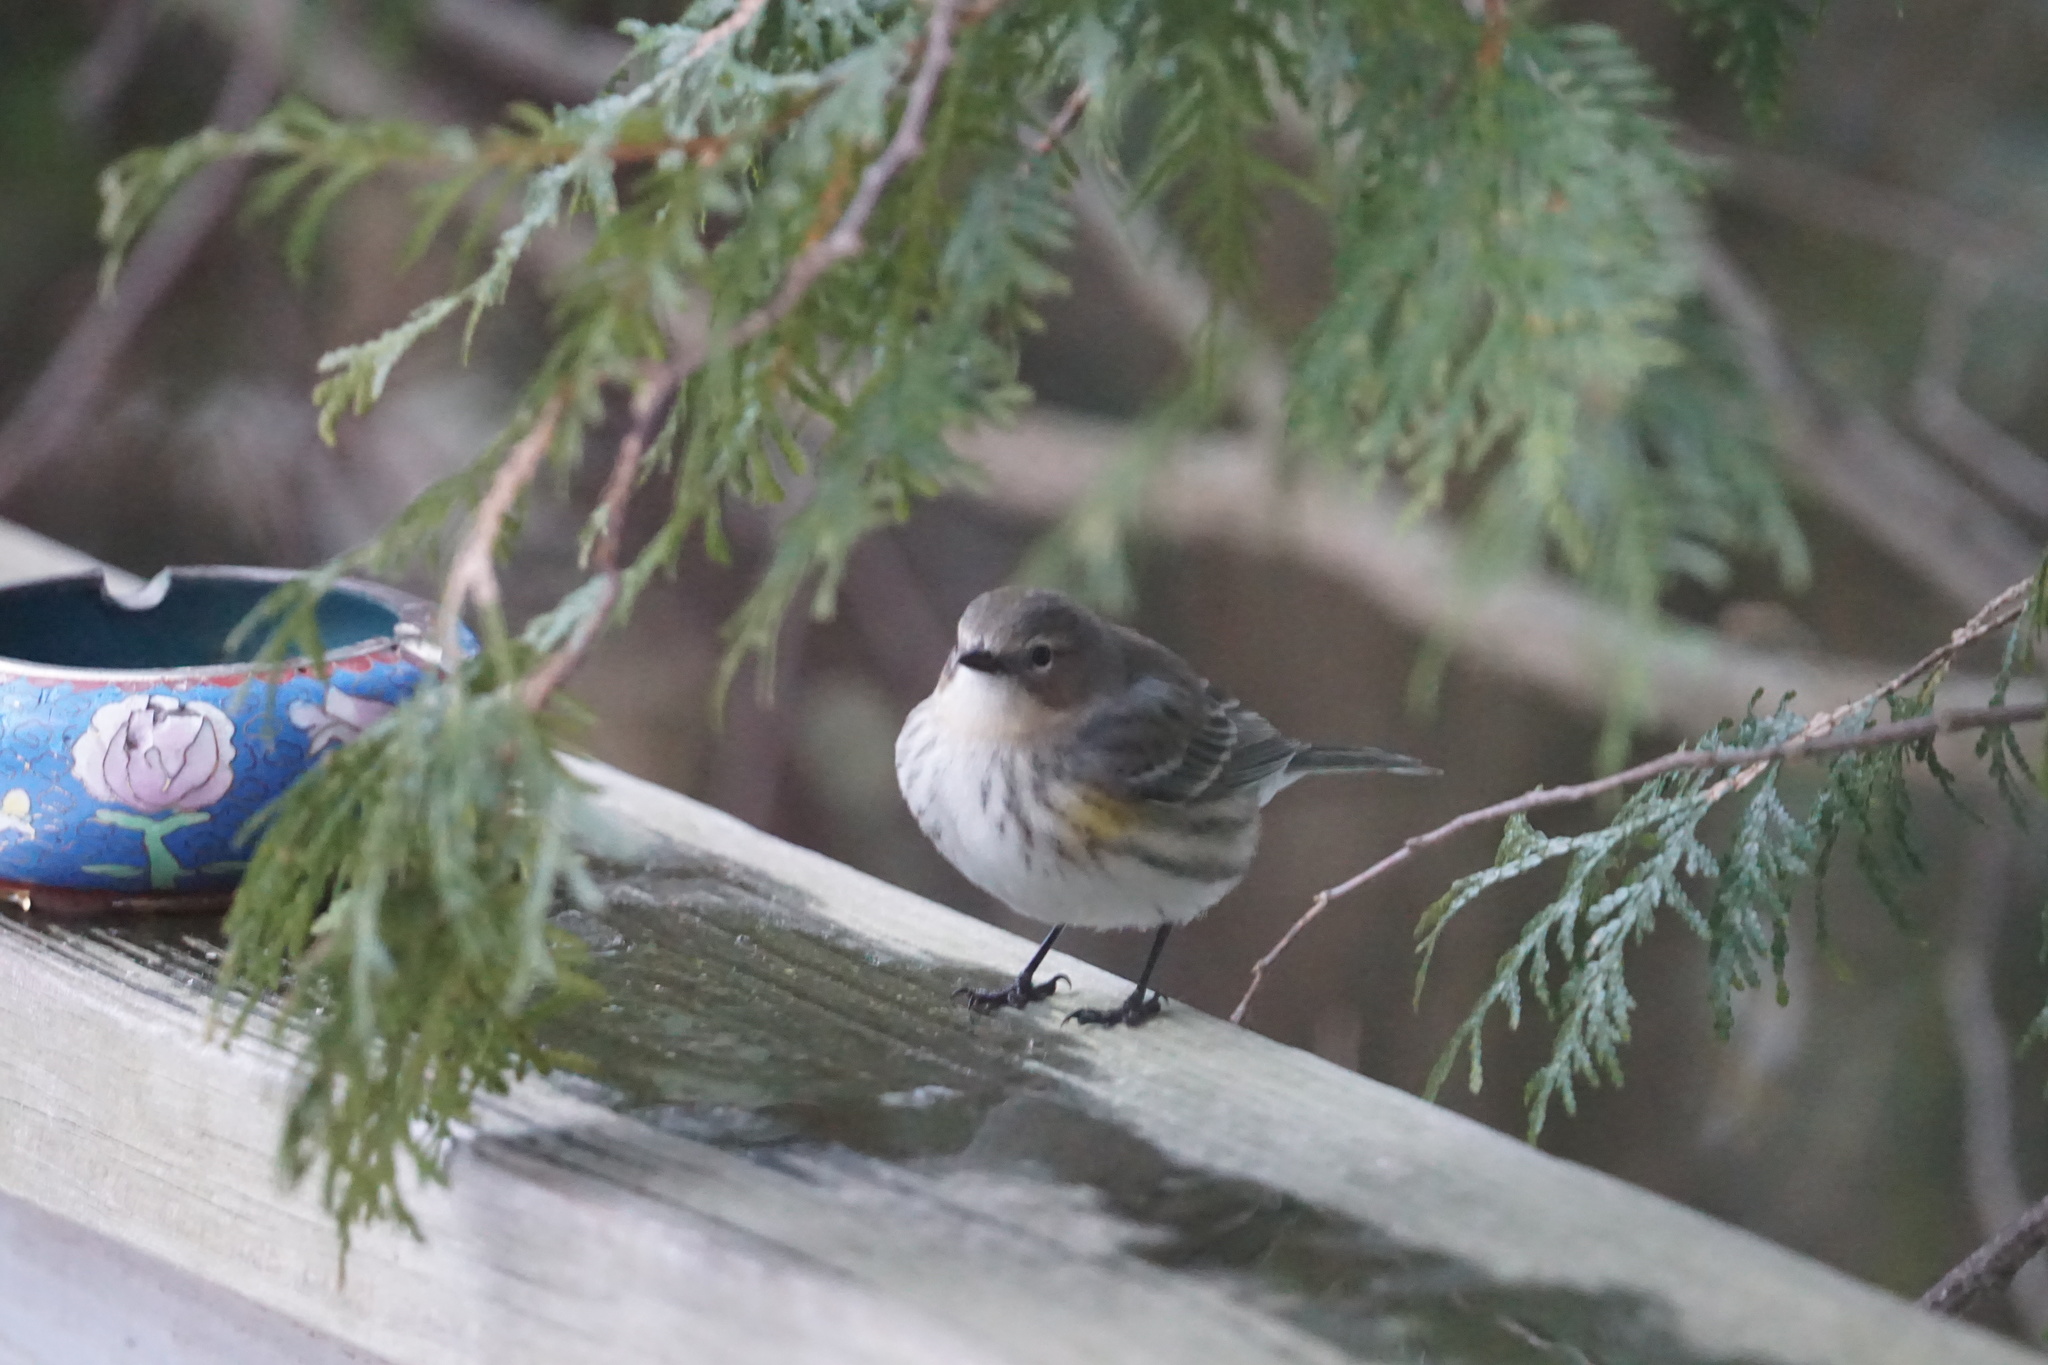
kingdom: Animalia
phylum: Chordata
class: Aves
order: Passeriformes
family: Parulidae
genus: Setophaga
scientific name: Setophaga coronata
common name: Myrtle warbler
